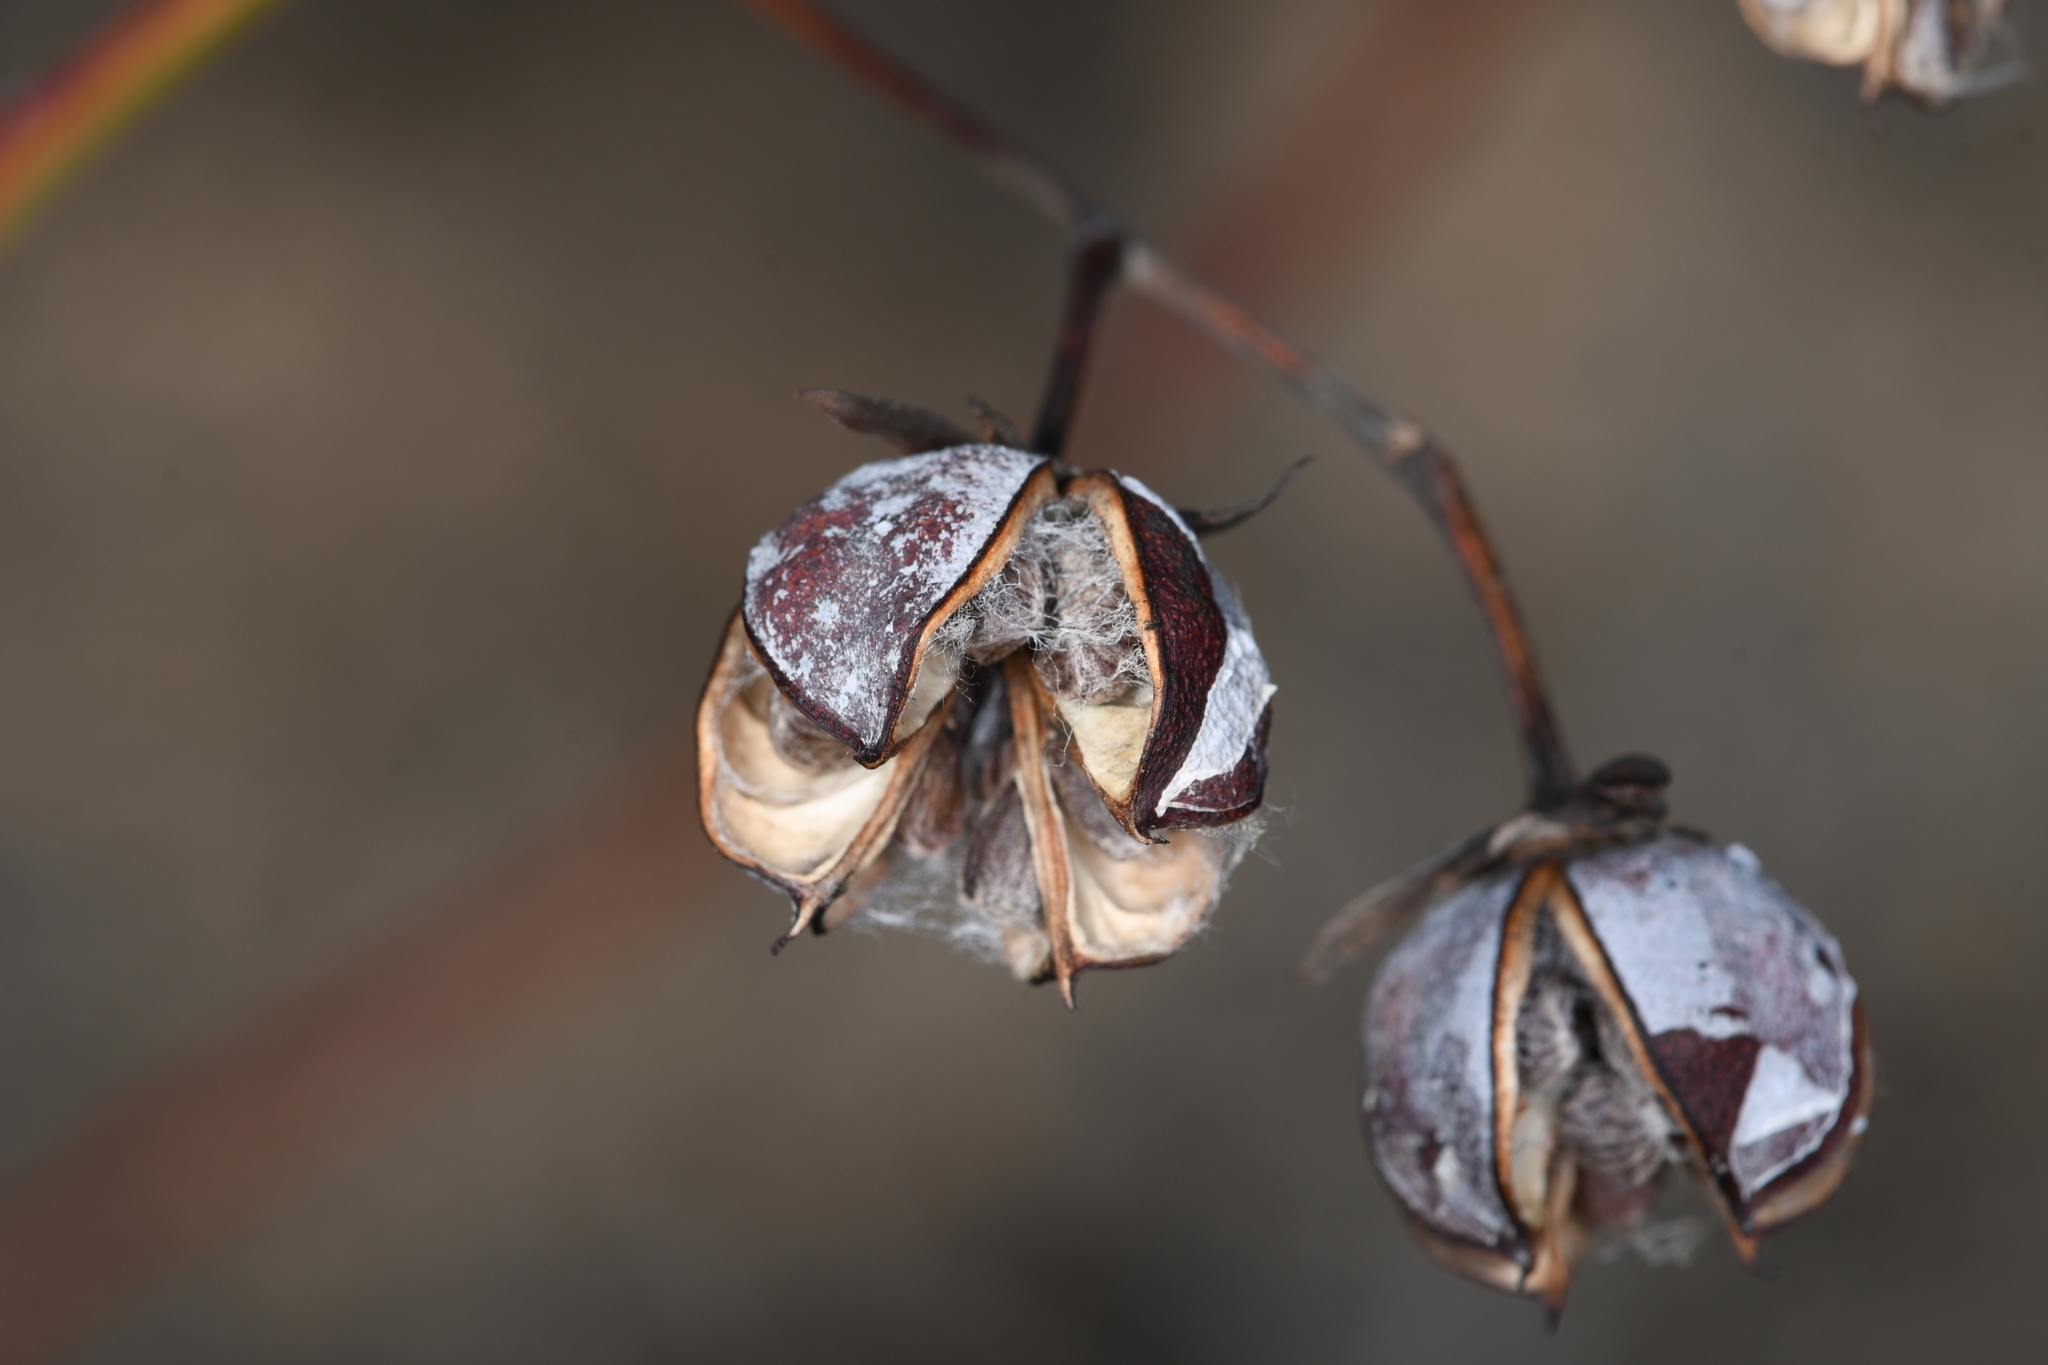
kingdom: Plantae
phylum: Tracheophyta
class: Magnoliopsida
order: Malvales
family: Malvaceae
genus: Gossypium
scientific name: Gossypium thurberi
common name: Desert cotton
